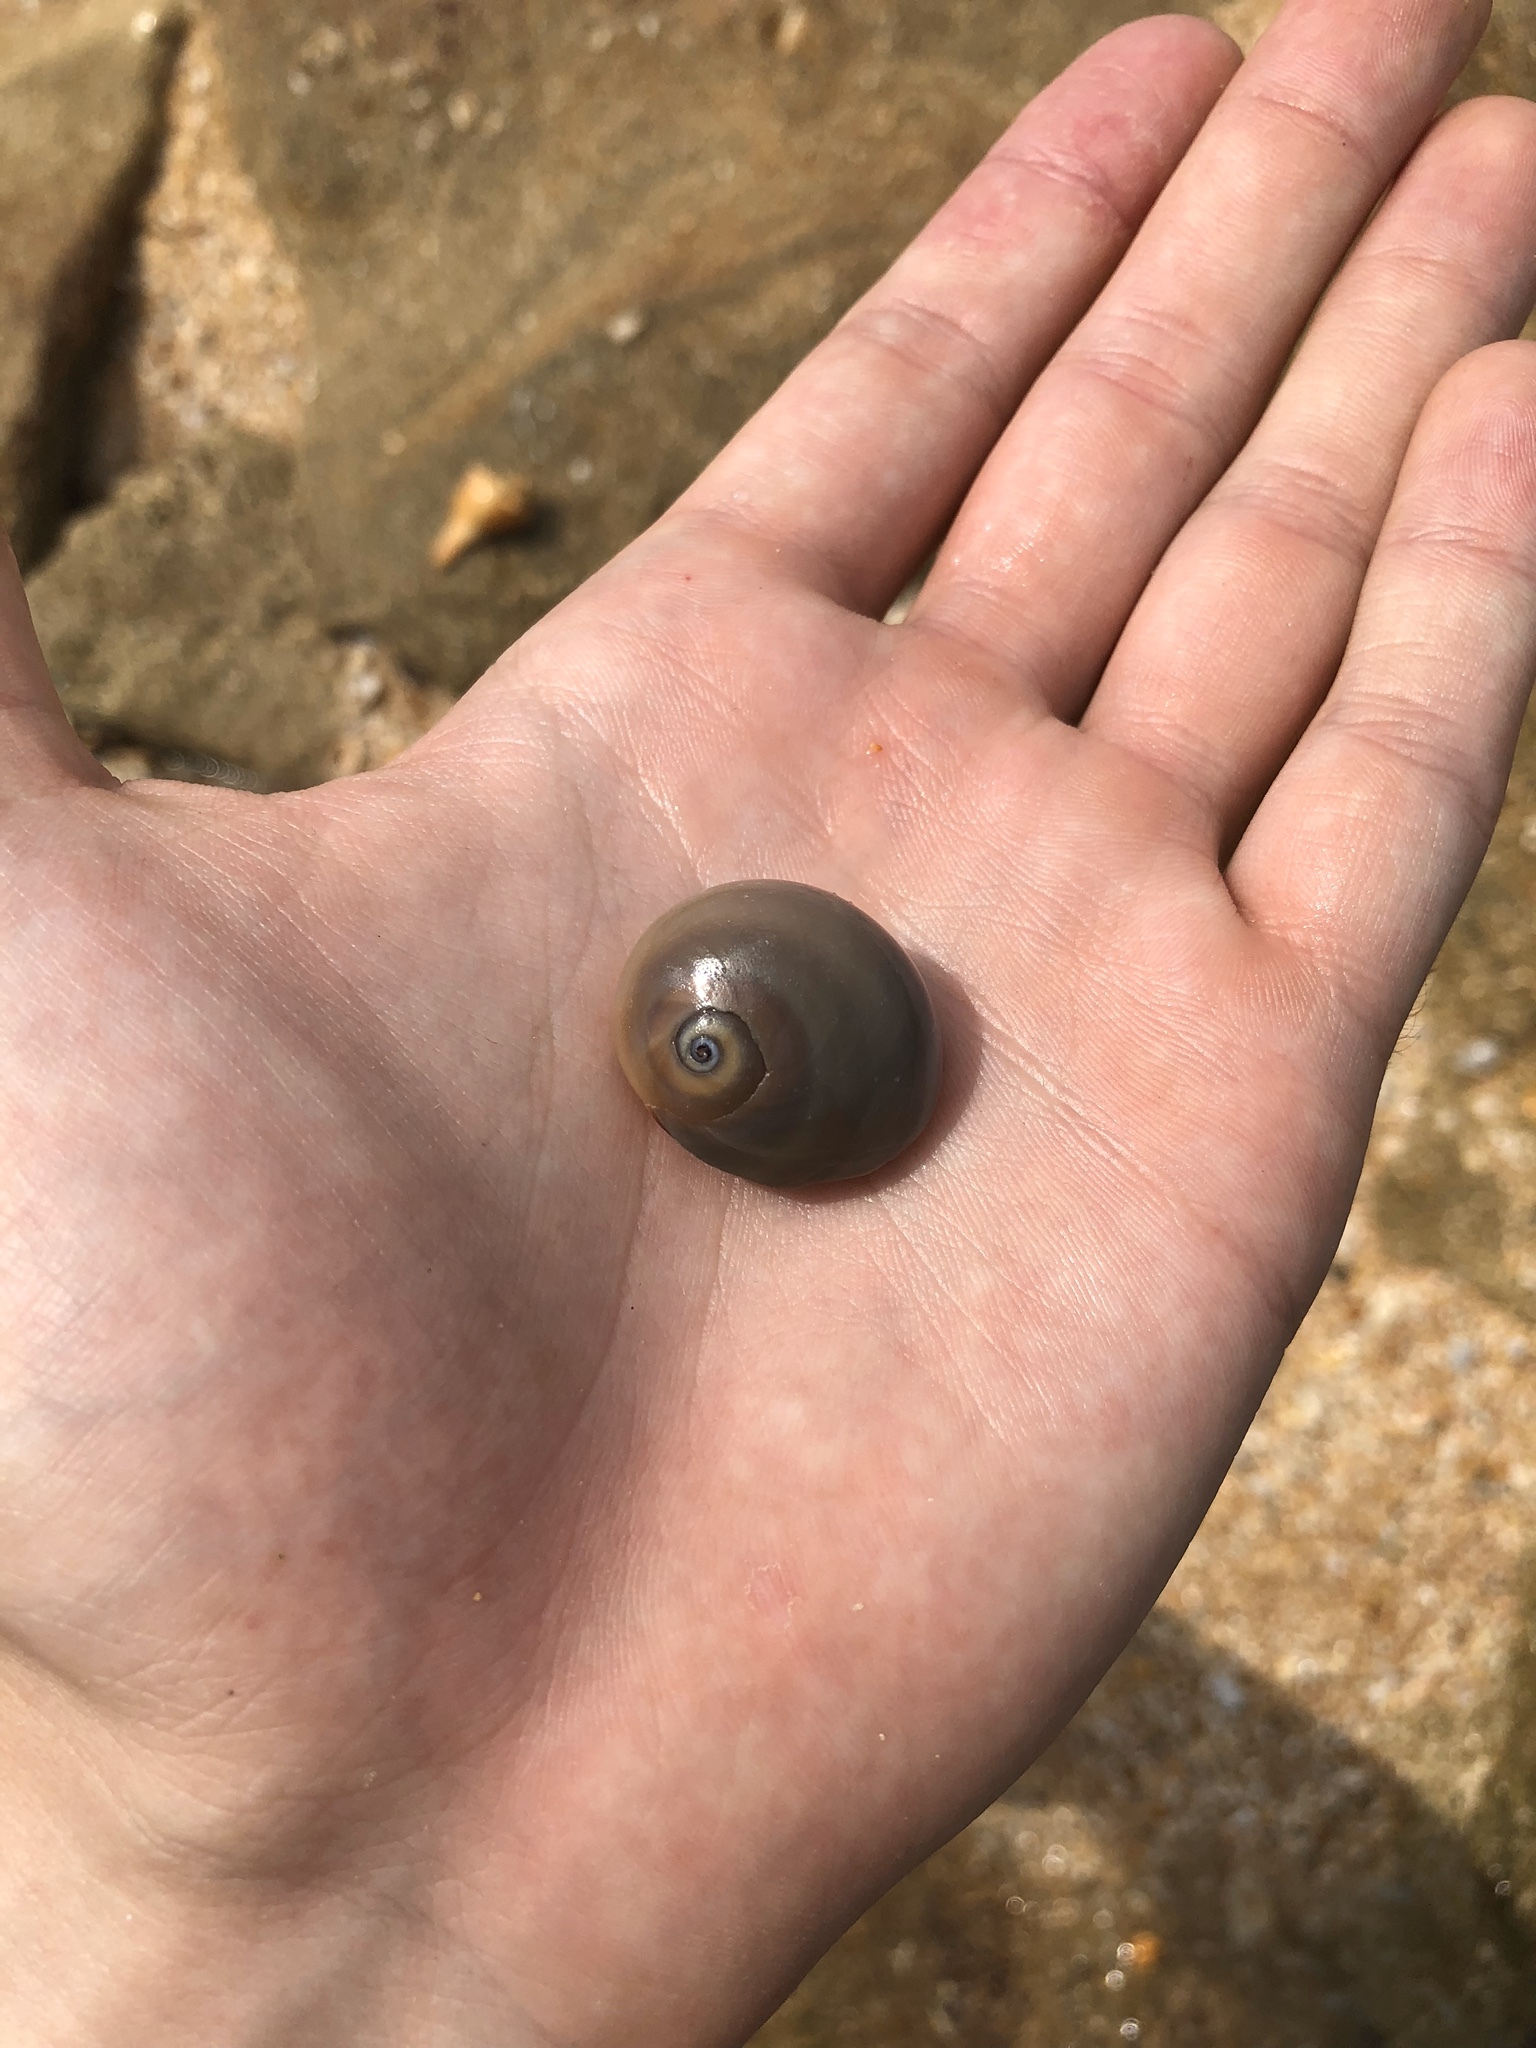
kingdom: Animalia
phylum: Mollusca
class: Gastropoda
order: Littorinimorpha
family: Naticidae
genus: Neverita
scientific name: Neverita duplicata
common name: Lobed moonsnail
